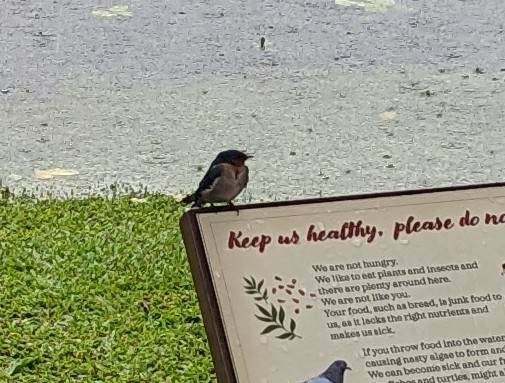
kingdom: Animalia
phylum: Chordata
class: Aves
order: Passeriformes
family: Hirundinidae
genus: Hirundo
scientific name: Hirundo tahitica
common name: Pacific swallow
